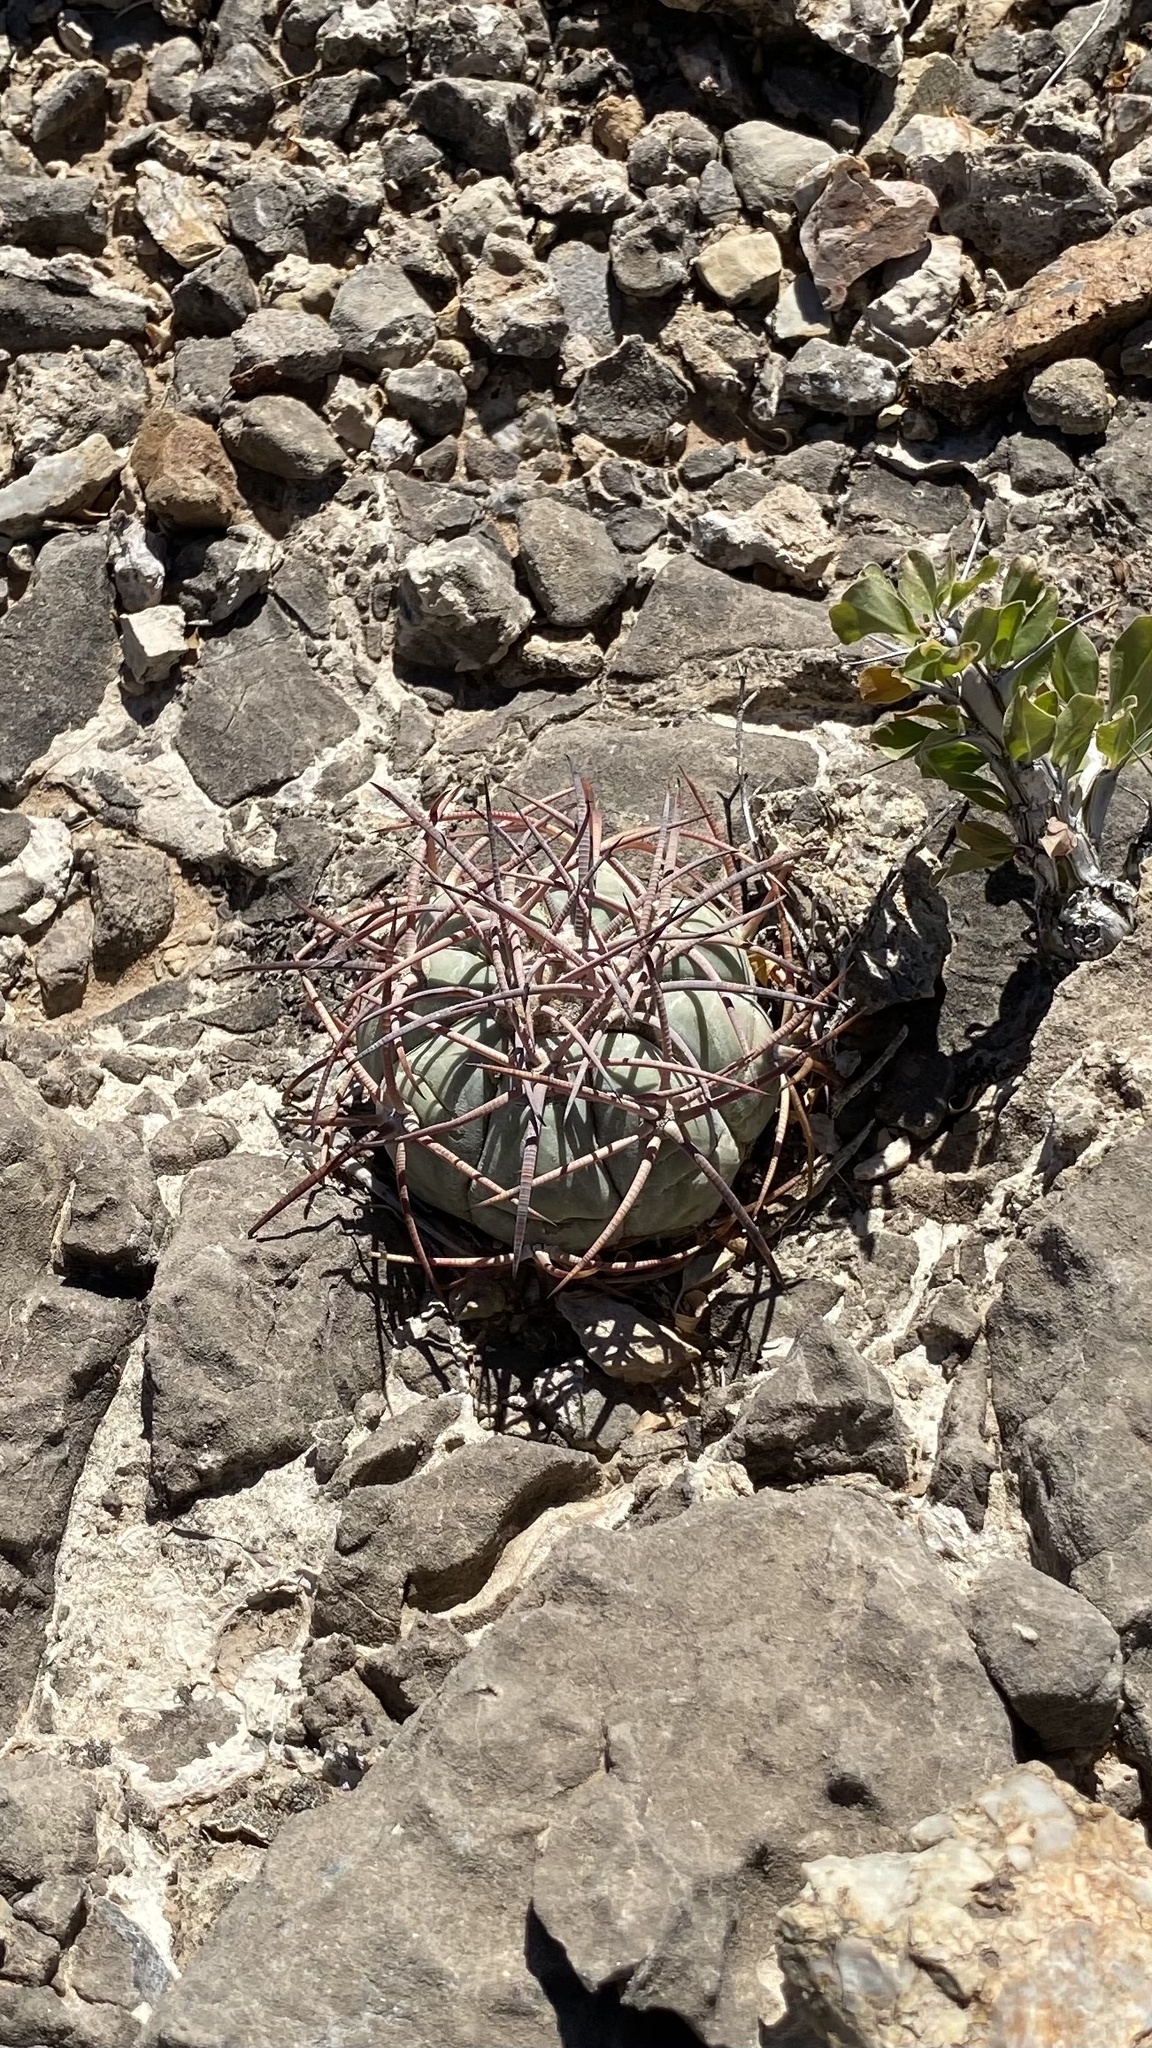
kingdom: Plantae
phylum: Tracheophyta
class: Magnoliopsida
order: Caryophyllales
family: Cactaceae
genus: Echinocactus
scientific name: Echinocactus horizonthalonius
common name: Devilshead
